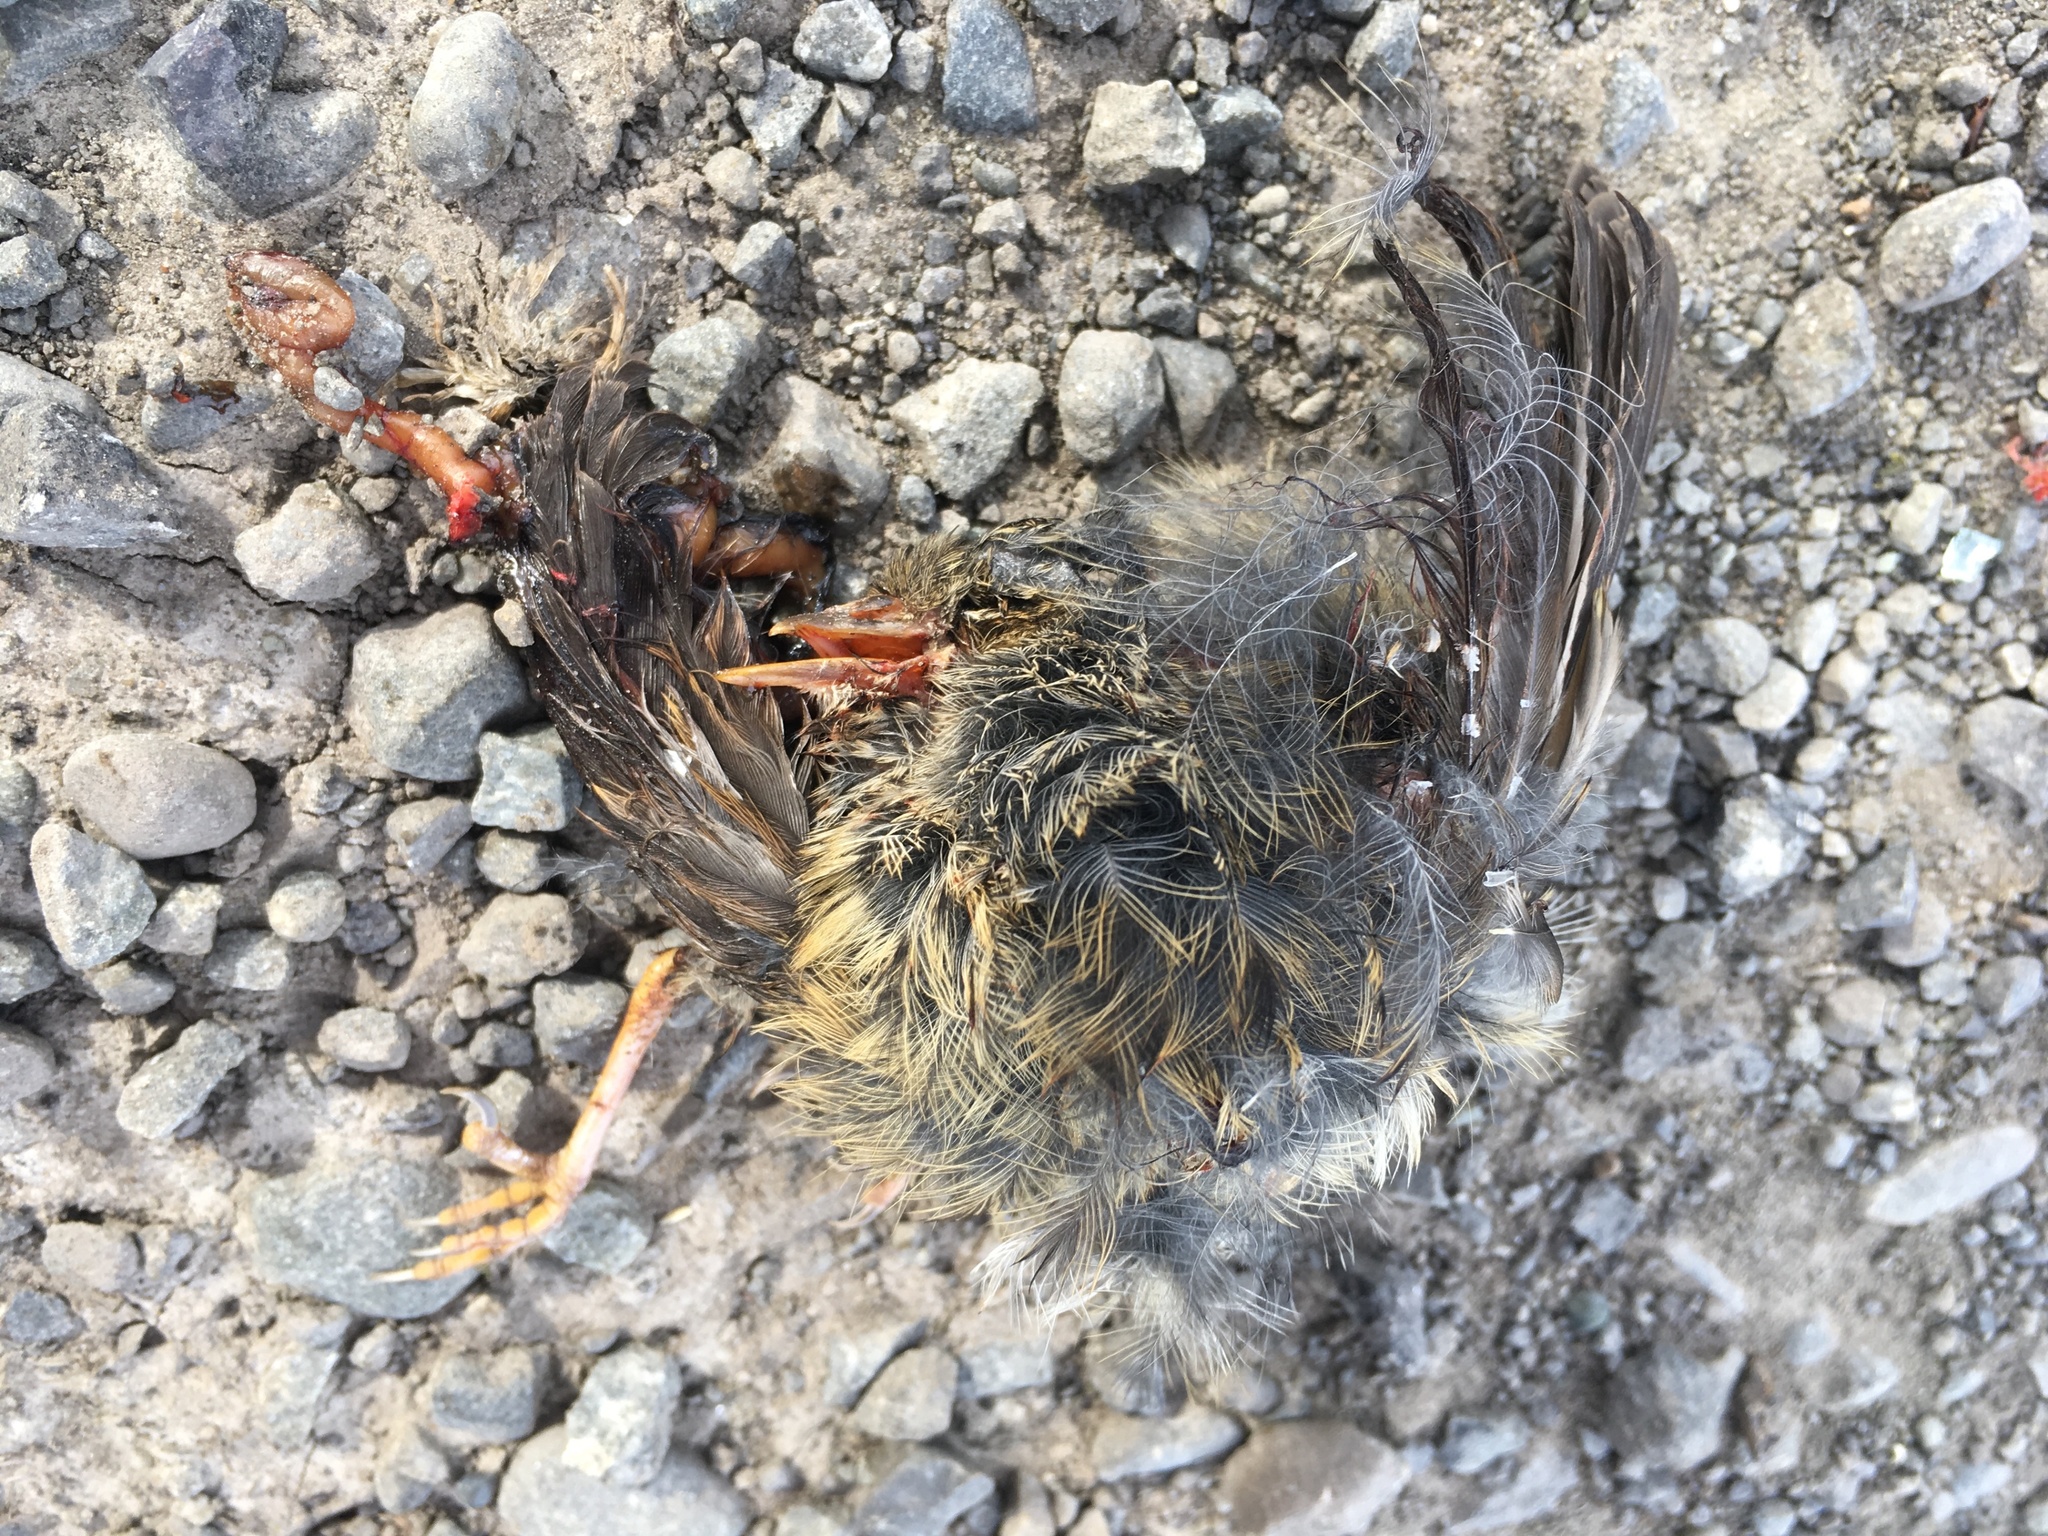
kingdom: Animalia
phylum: Chordata
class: Aves
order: Passeriformes
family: Prunellidae
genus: Prunella
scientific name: Prunella modularis
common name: Dunnock
